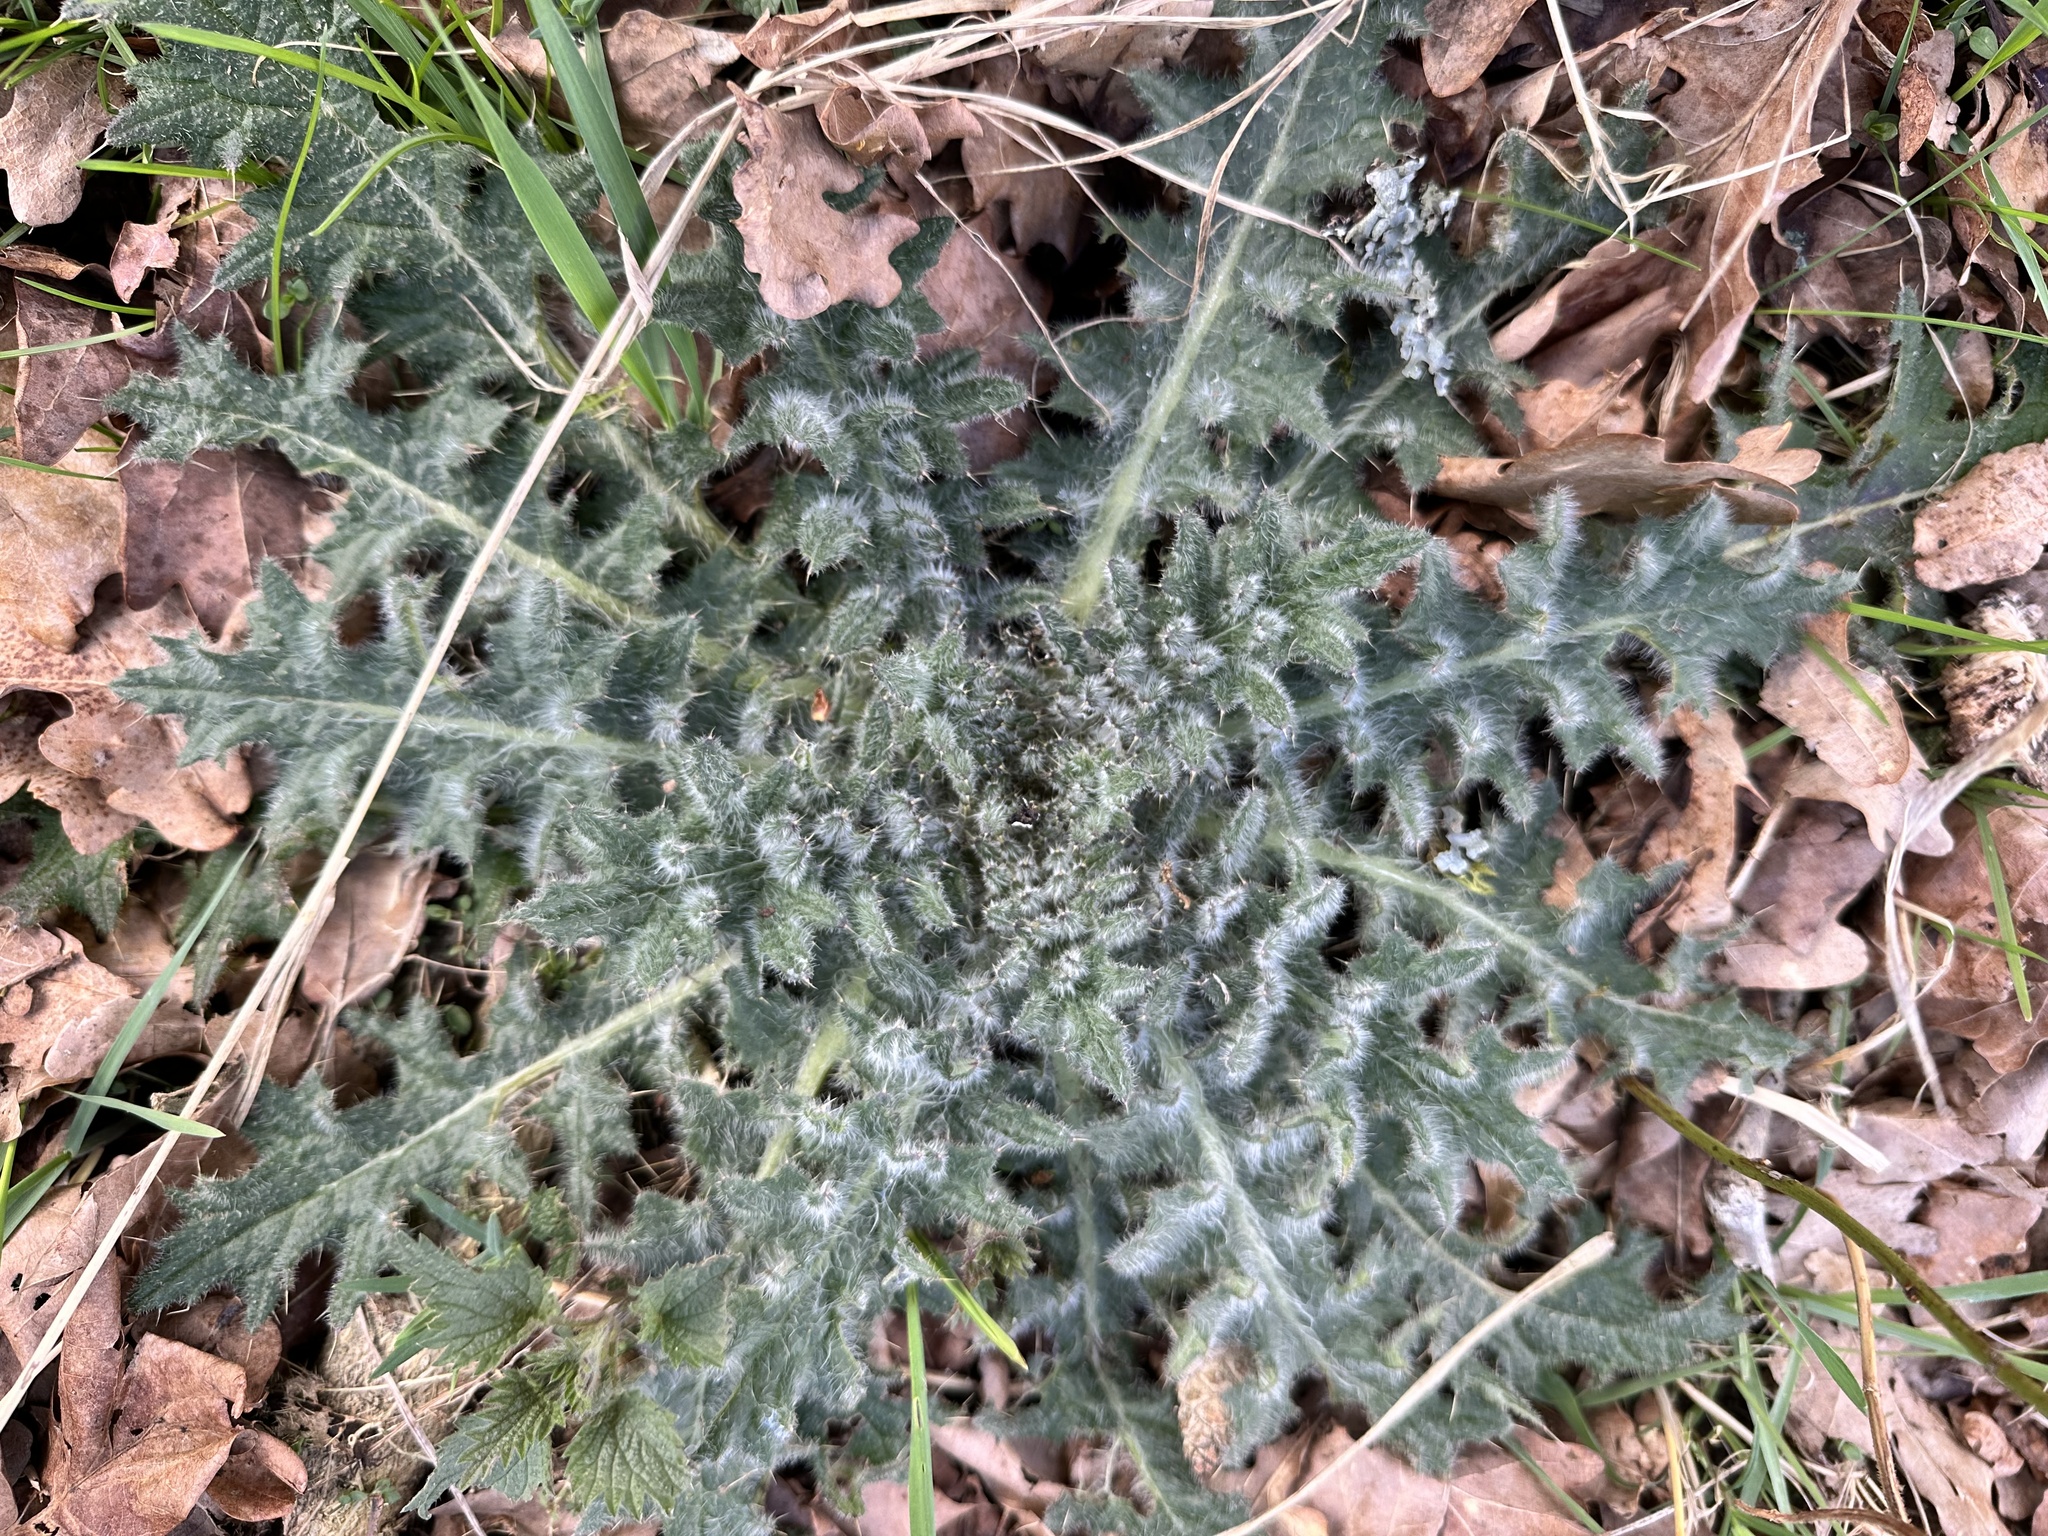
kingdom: Plantae
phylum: Tracheophyta
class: Magnoliopsida
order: Asterales
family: Asteraceae
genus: Cirsium
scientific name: Cirsium vulgare
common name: Bull thistle
